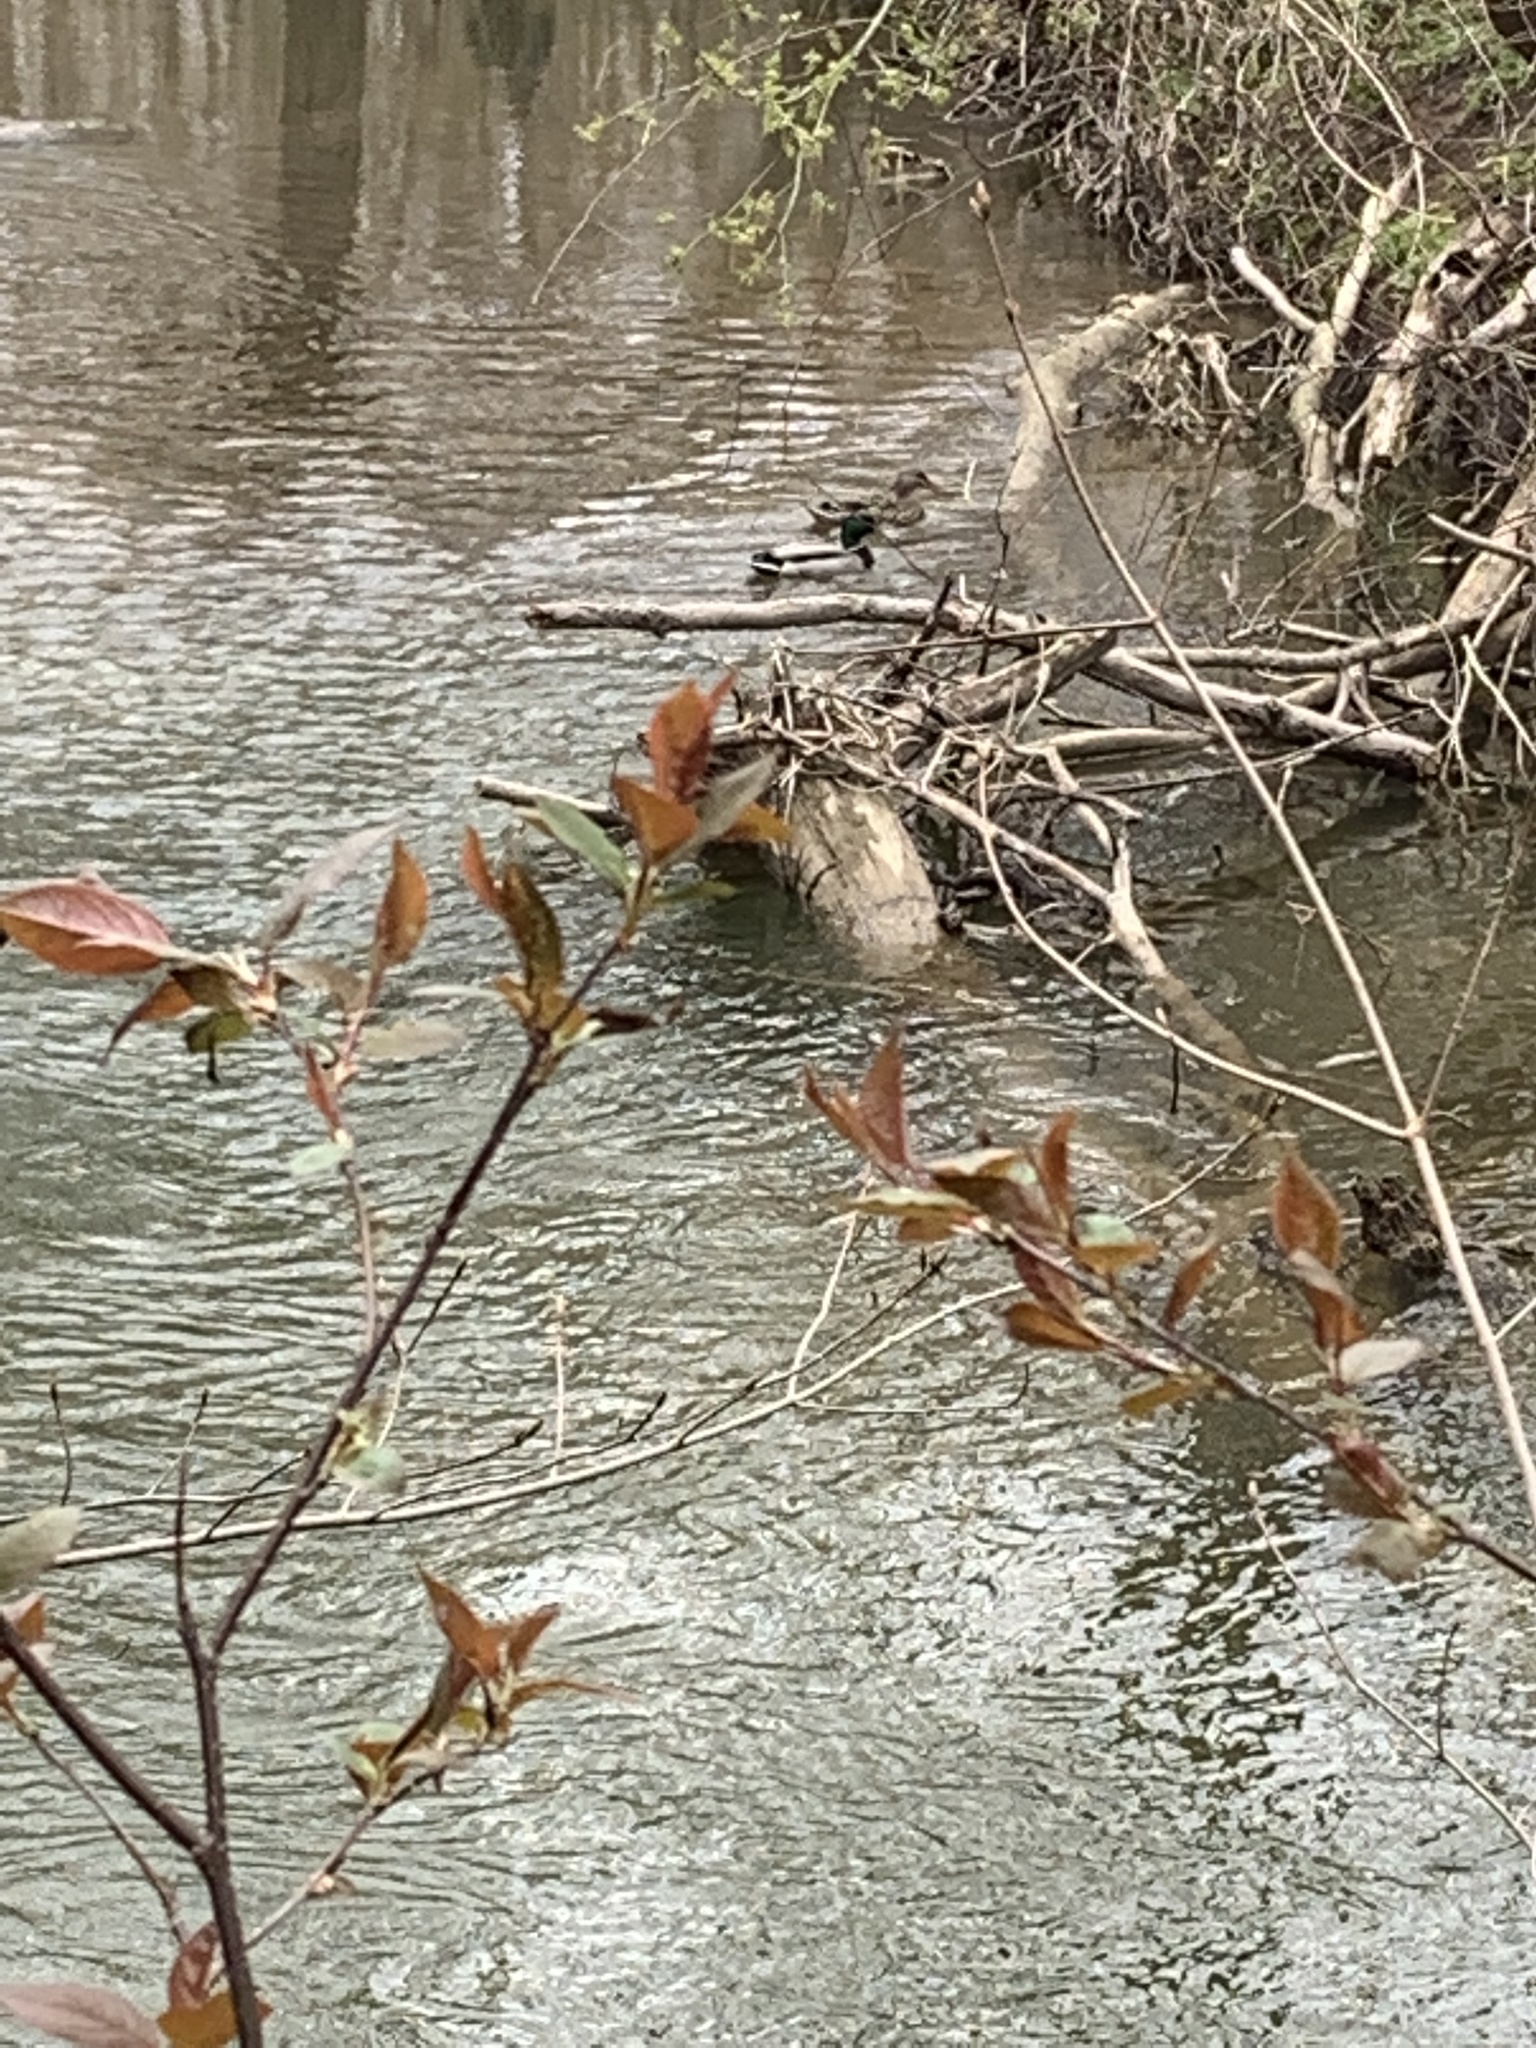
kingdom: Animalia
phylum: Chordata
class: Aves
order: Anseriformes
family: Anatidae
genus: Anas
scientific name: Anas platyrhynchos
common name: Mallard
